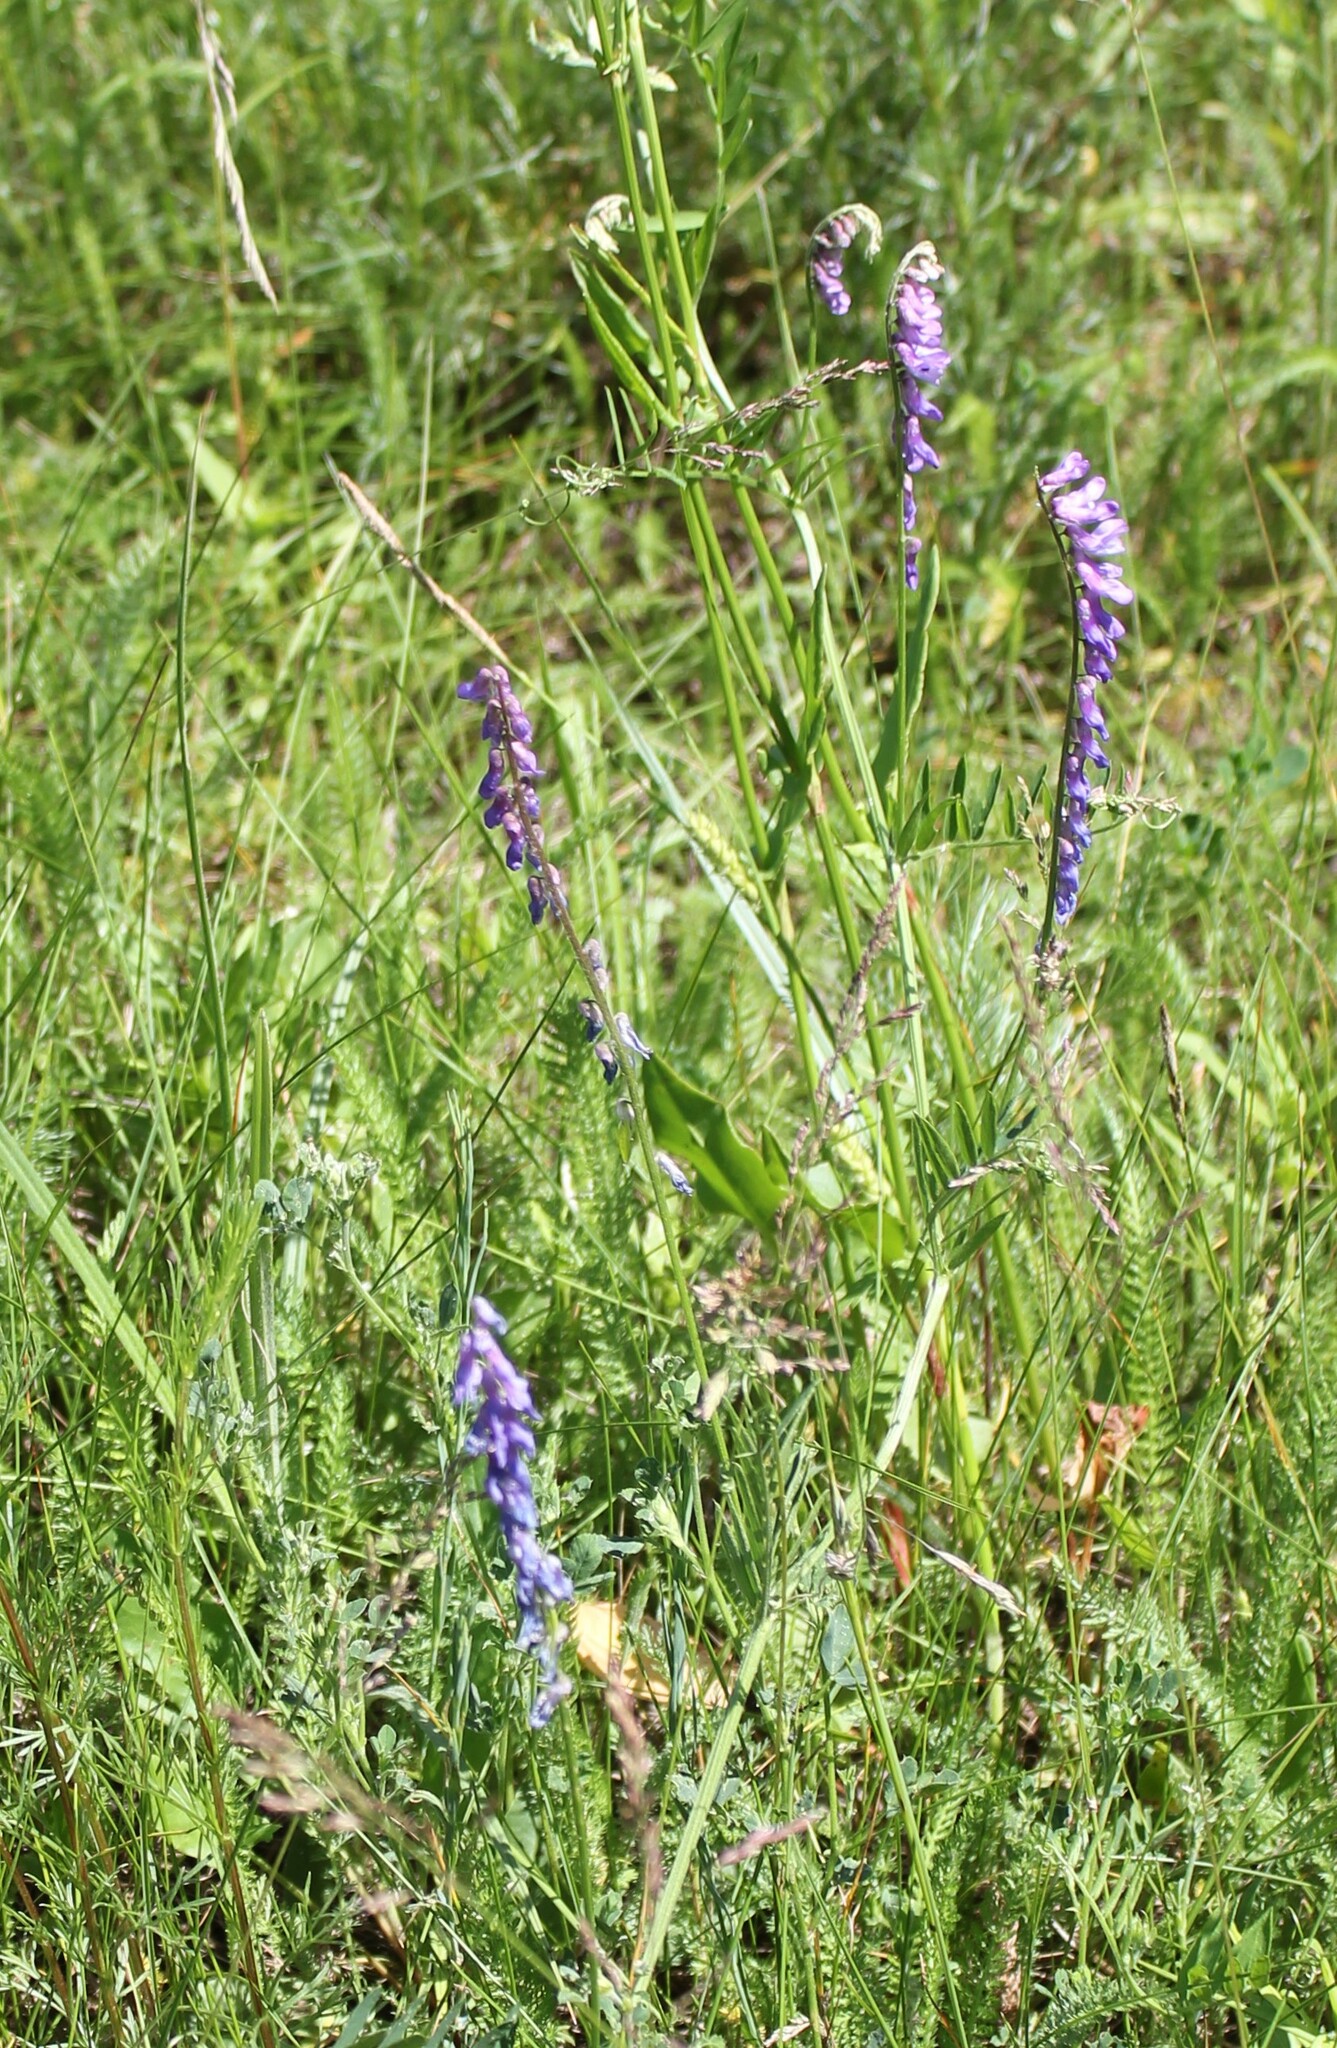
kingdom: Plantae
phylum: Tracheophyta
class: Magnoliopsida
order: Fabales
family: Fabaceae
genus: Vicia
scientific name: Vicia cracca
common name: Bird vetch
